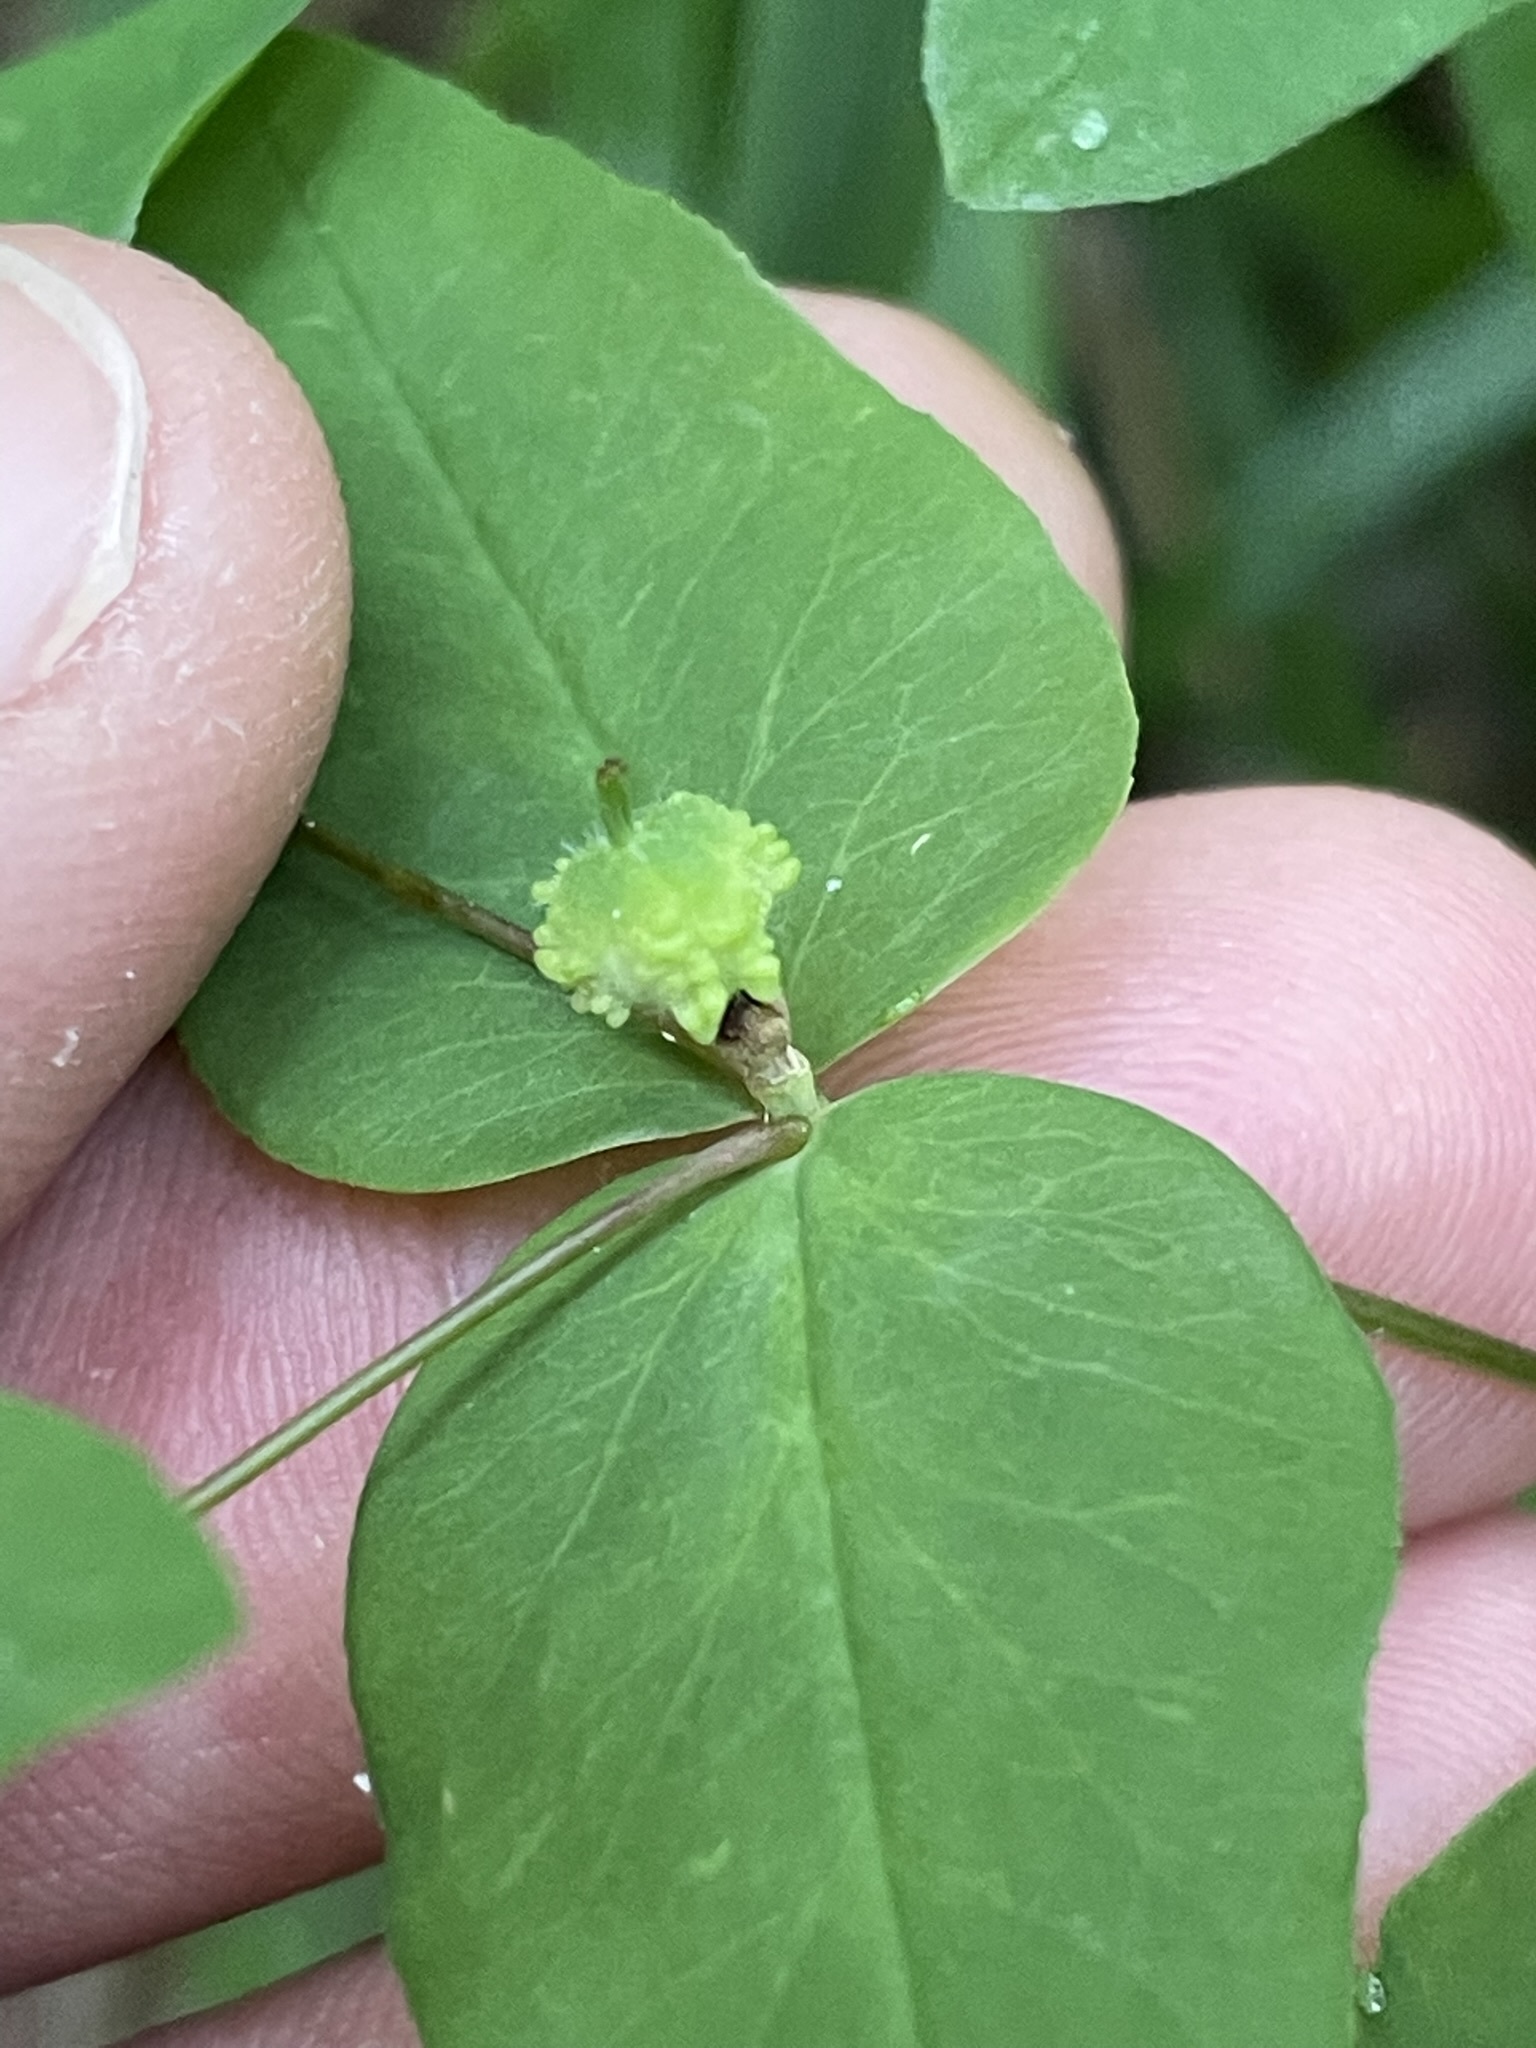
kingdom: Plantae
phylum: Tracheophyta
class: Magnoliopsida
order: Malpighiales
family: Euphorbiaceae
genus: Euphorbia
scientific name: Euphorbia dulcis
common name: Sweet spurge
